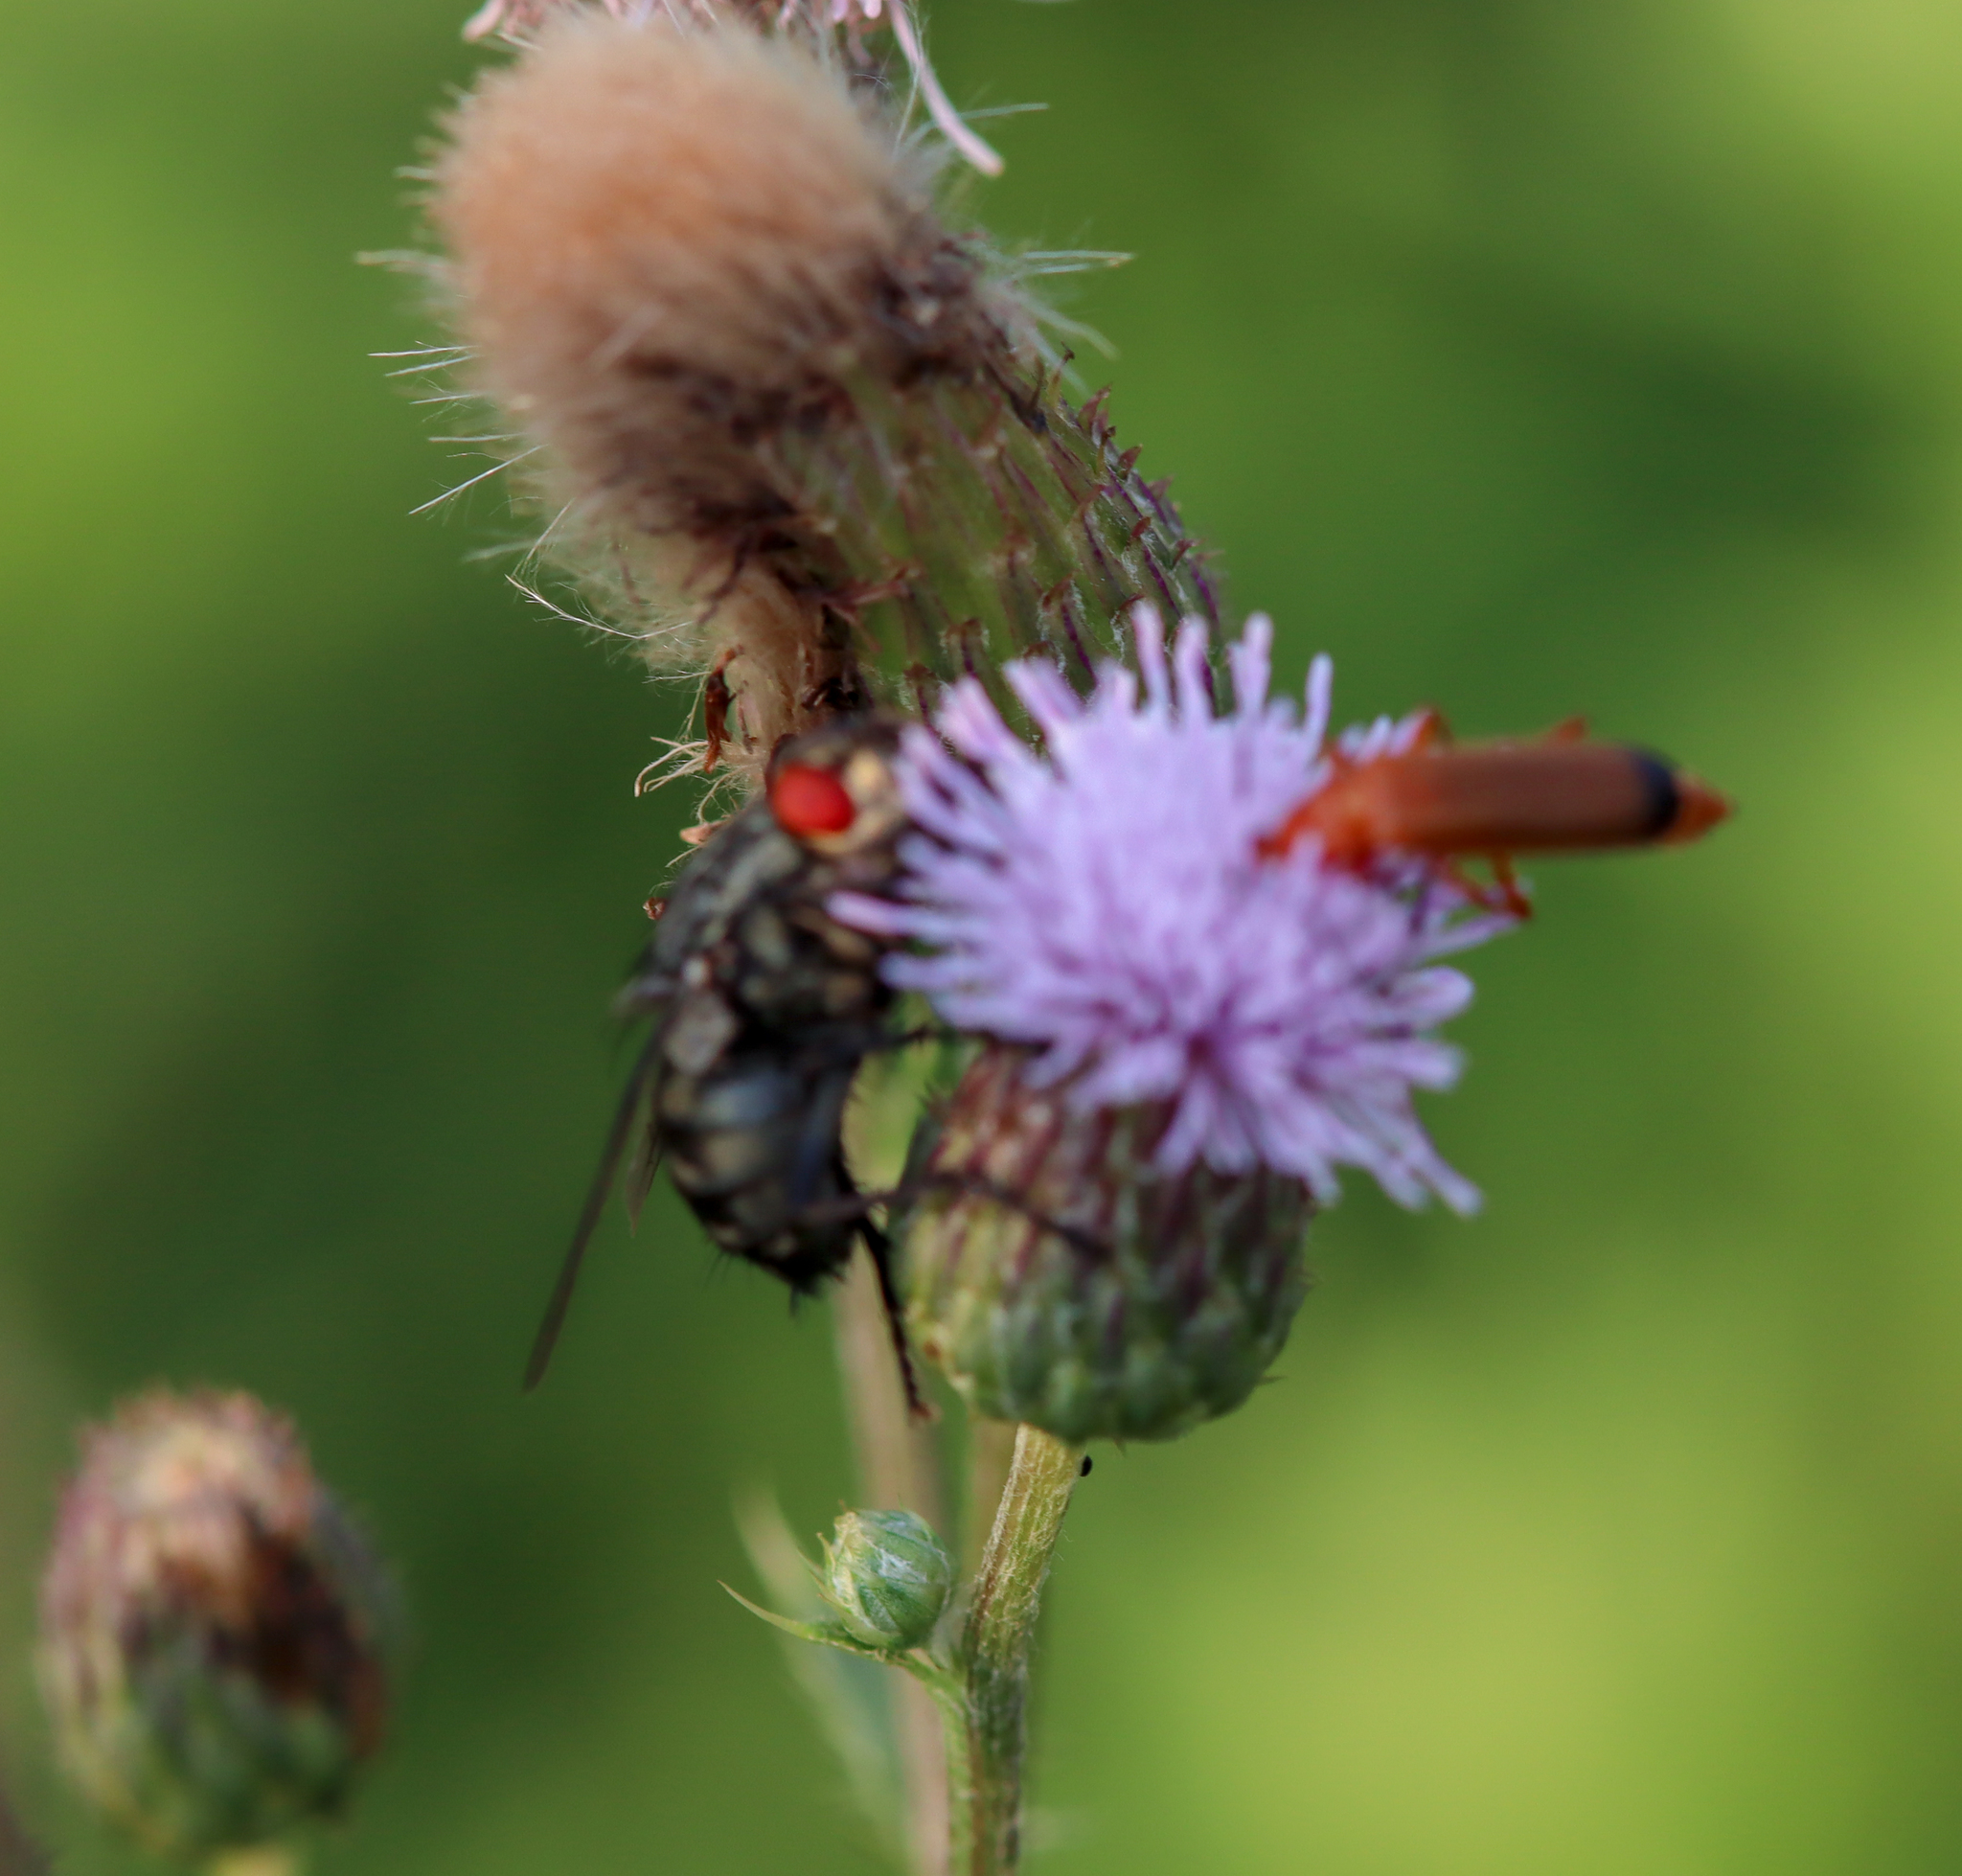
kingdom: Animalia
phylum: Arthropoda
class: Insecta
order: Coleoptera
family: Cantharidae
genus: Rhagonycha
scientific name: Rhagonycha fulva
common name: Common red soldier beetle
